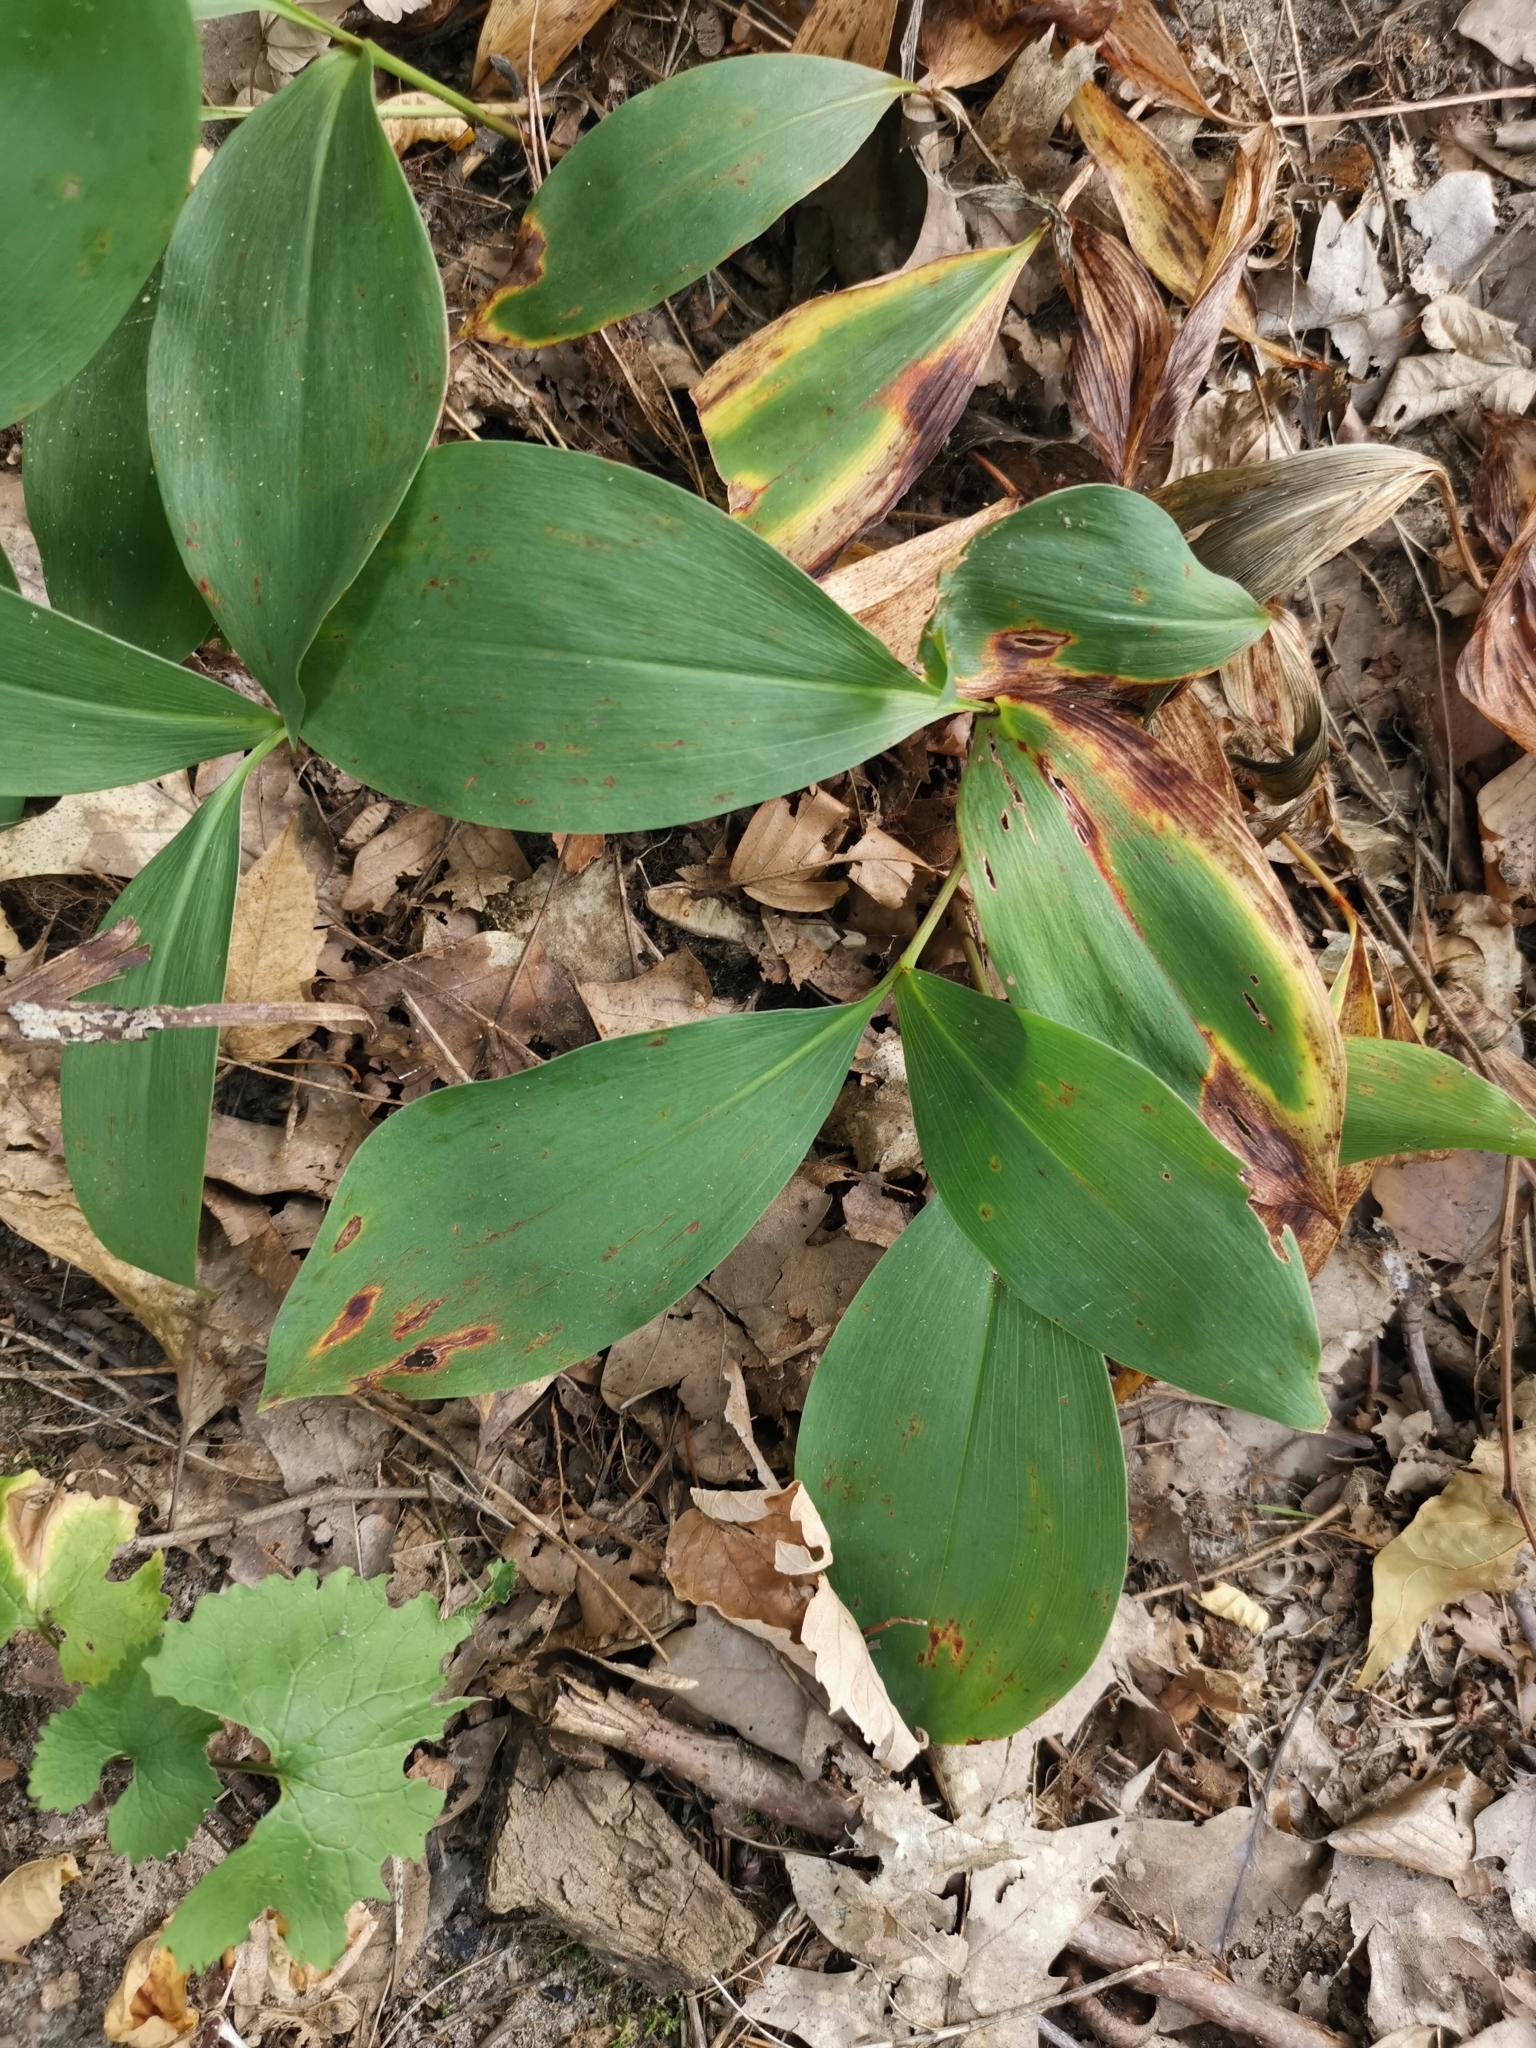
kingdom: Plantae
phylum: Tracheophyta
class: Liliopsida
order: Asparagales
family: Asparagaceae
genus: Convallaria
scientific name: Convallaria majalis
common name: Lily-of-the-valley
